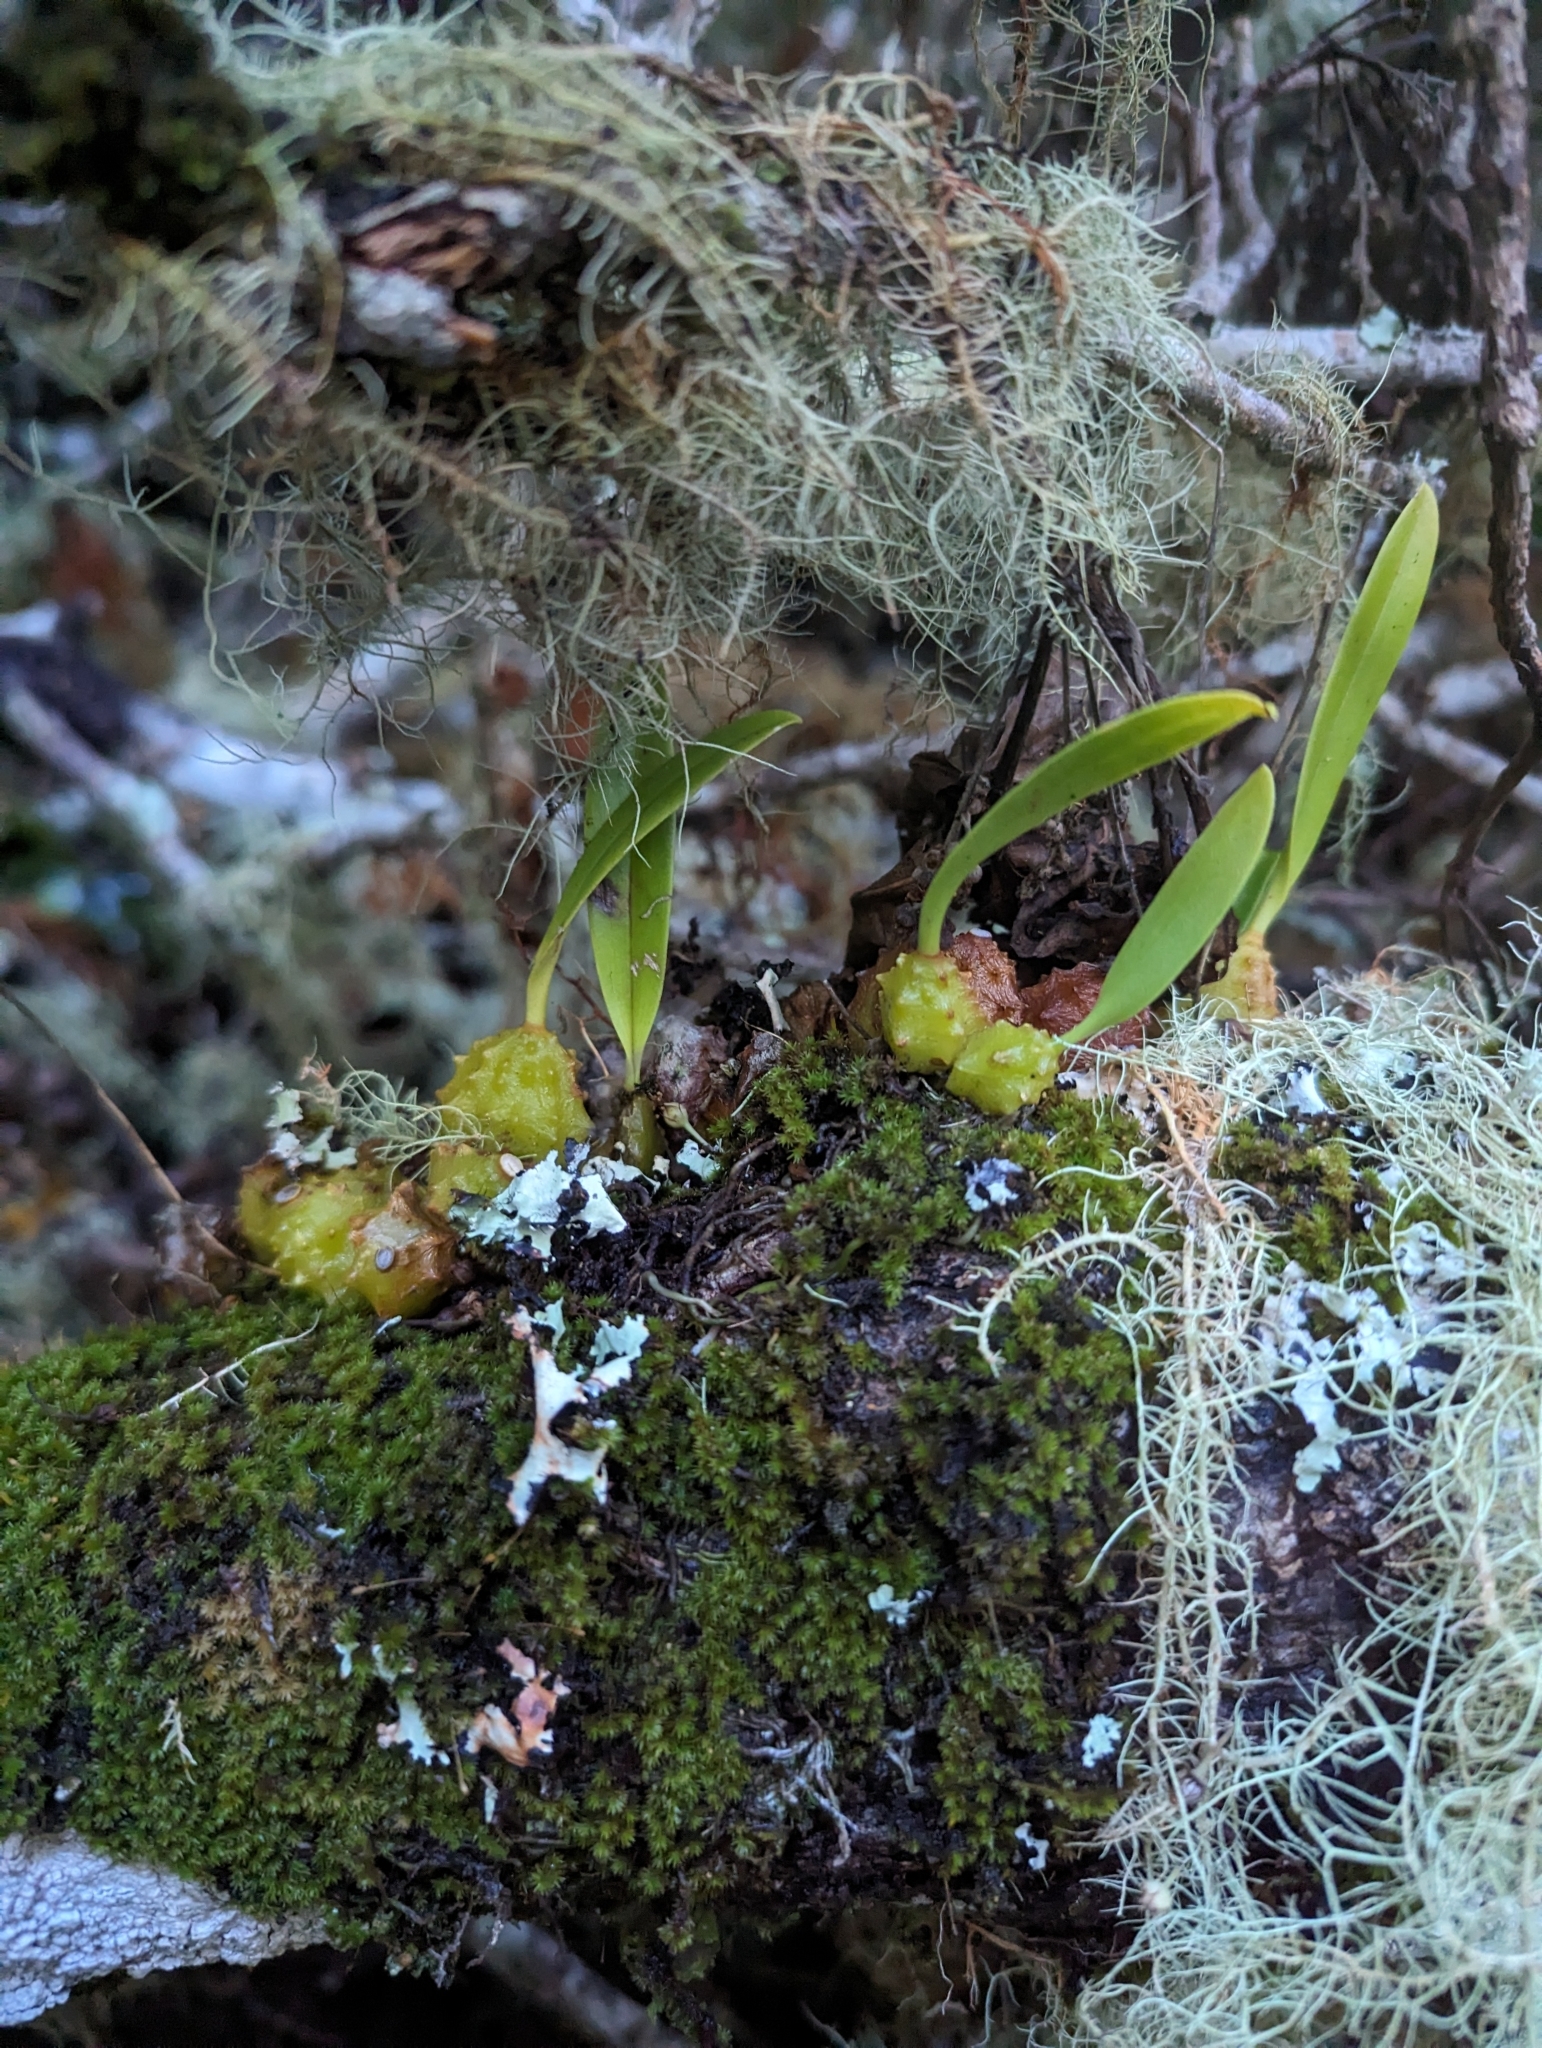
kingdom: Plantae
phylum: Tracheophyta
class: Liliopsida
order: Asparagales
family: Orchidaceae
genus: Bulbophyllum
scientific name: Bulbophyllum elisae
